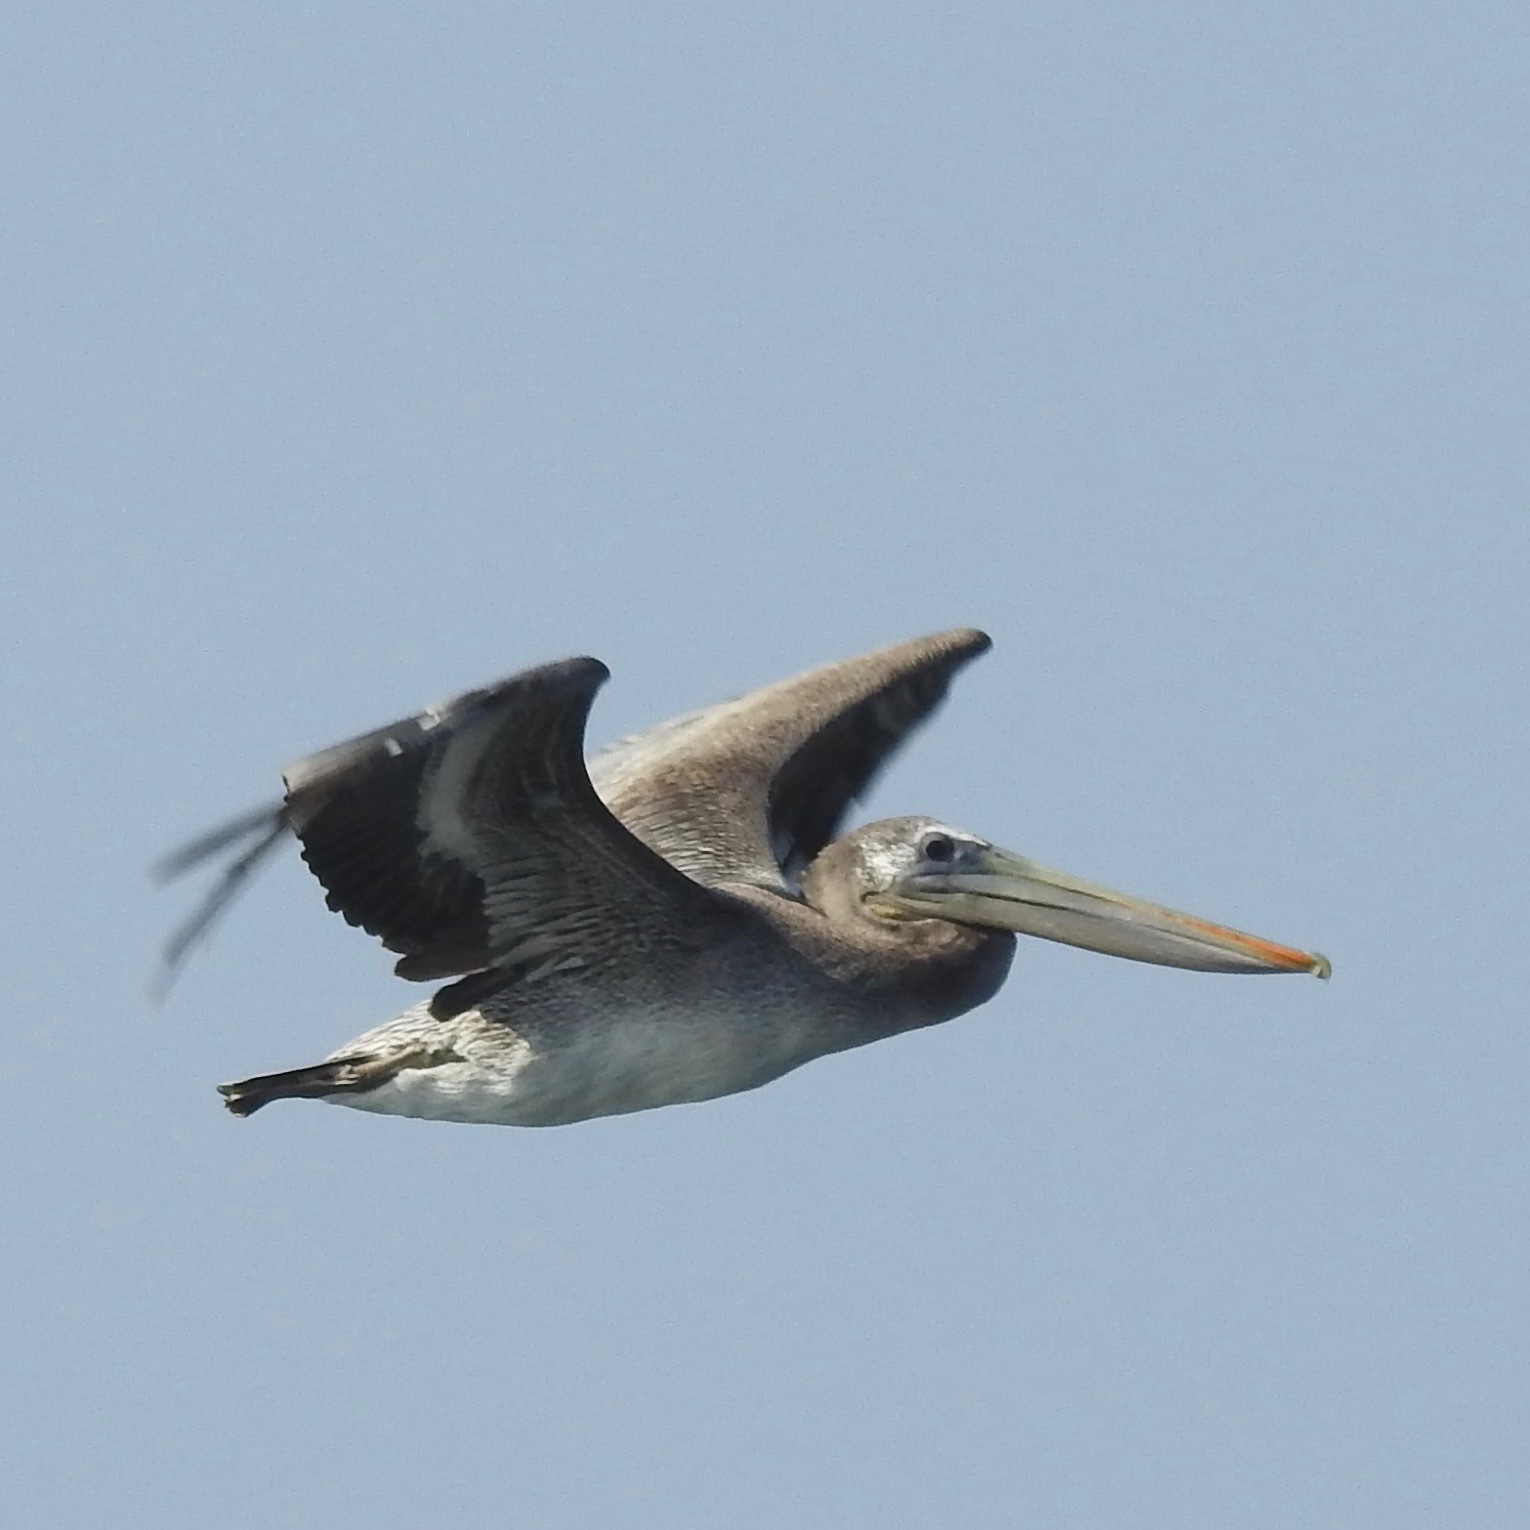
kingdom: Animalia
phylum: Chordata
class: Aves
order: Pelecaniformes
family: Pelecanidae
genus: Pelecanus
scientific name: Pelecanus occidentalis
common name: Brown pelican
